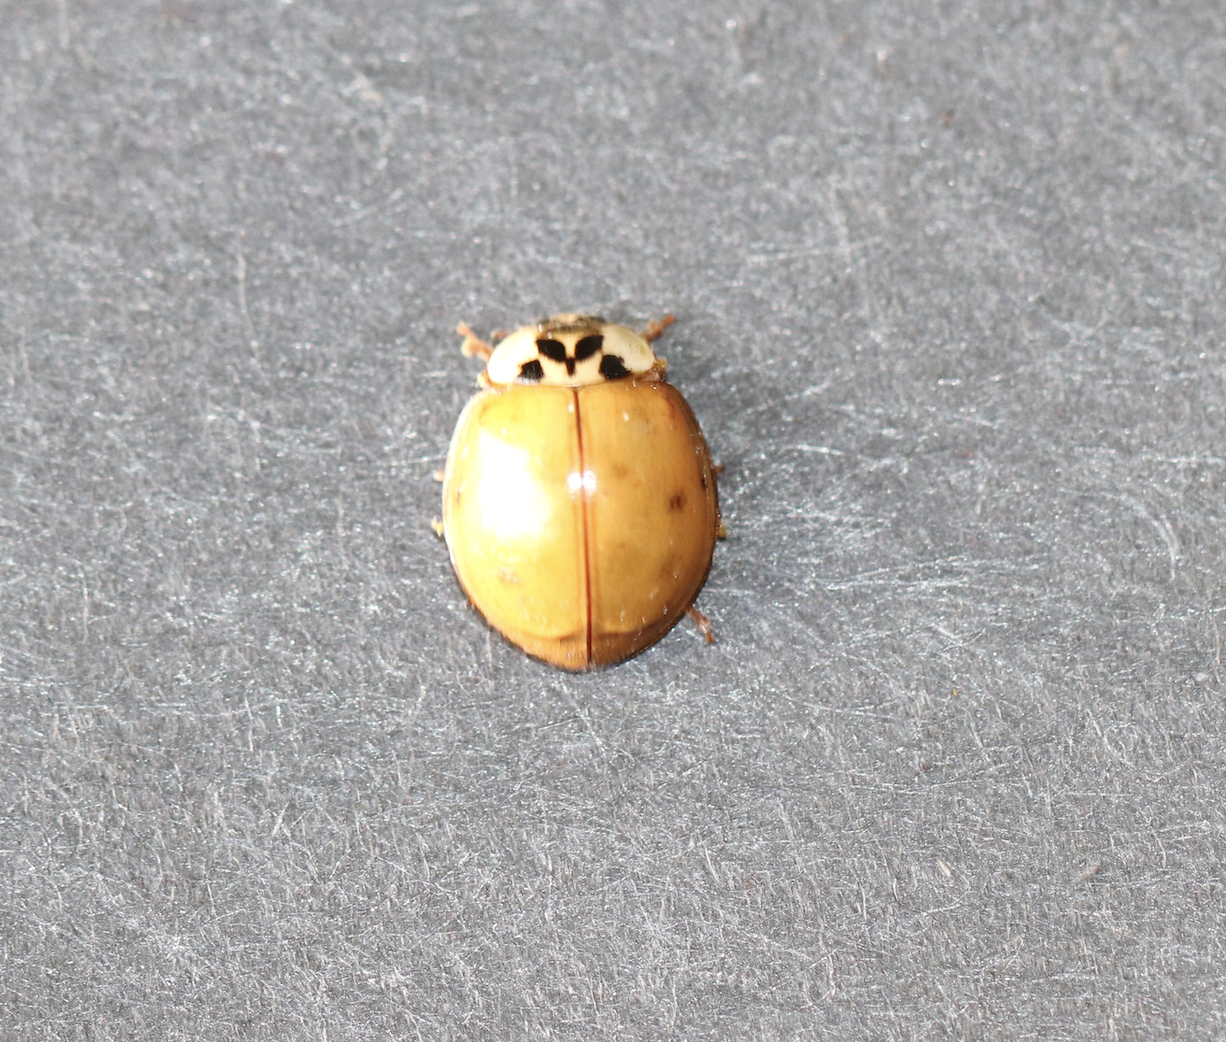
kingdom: Animalia
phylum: Arthropoda
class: Insecta
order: Coleoptera
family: Coccinellidae
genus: Harmonia
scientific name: Harmonia axyridis
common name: Harlequin ladybird
